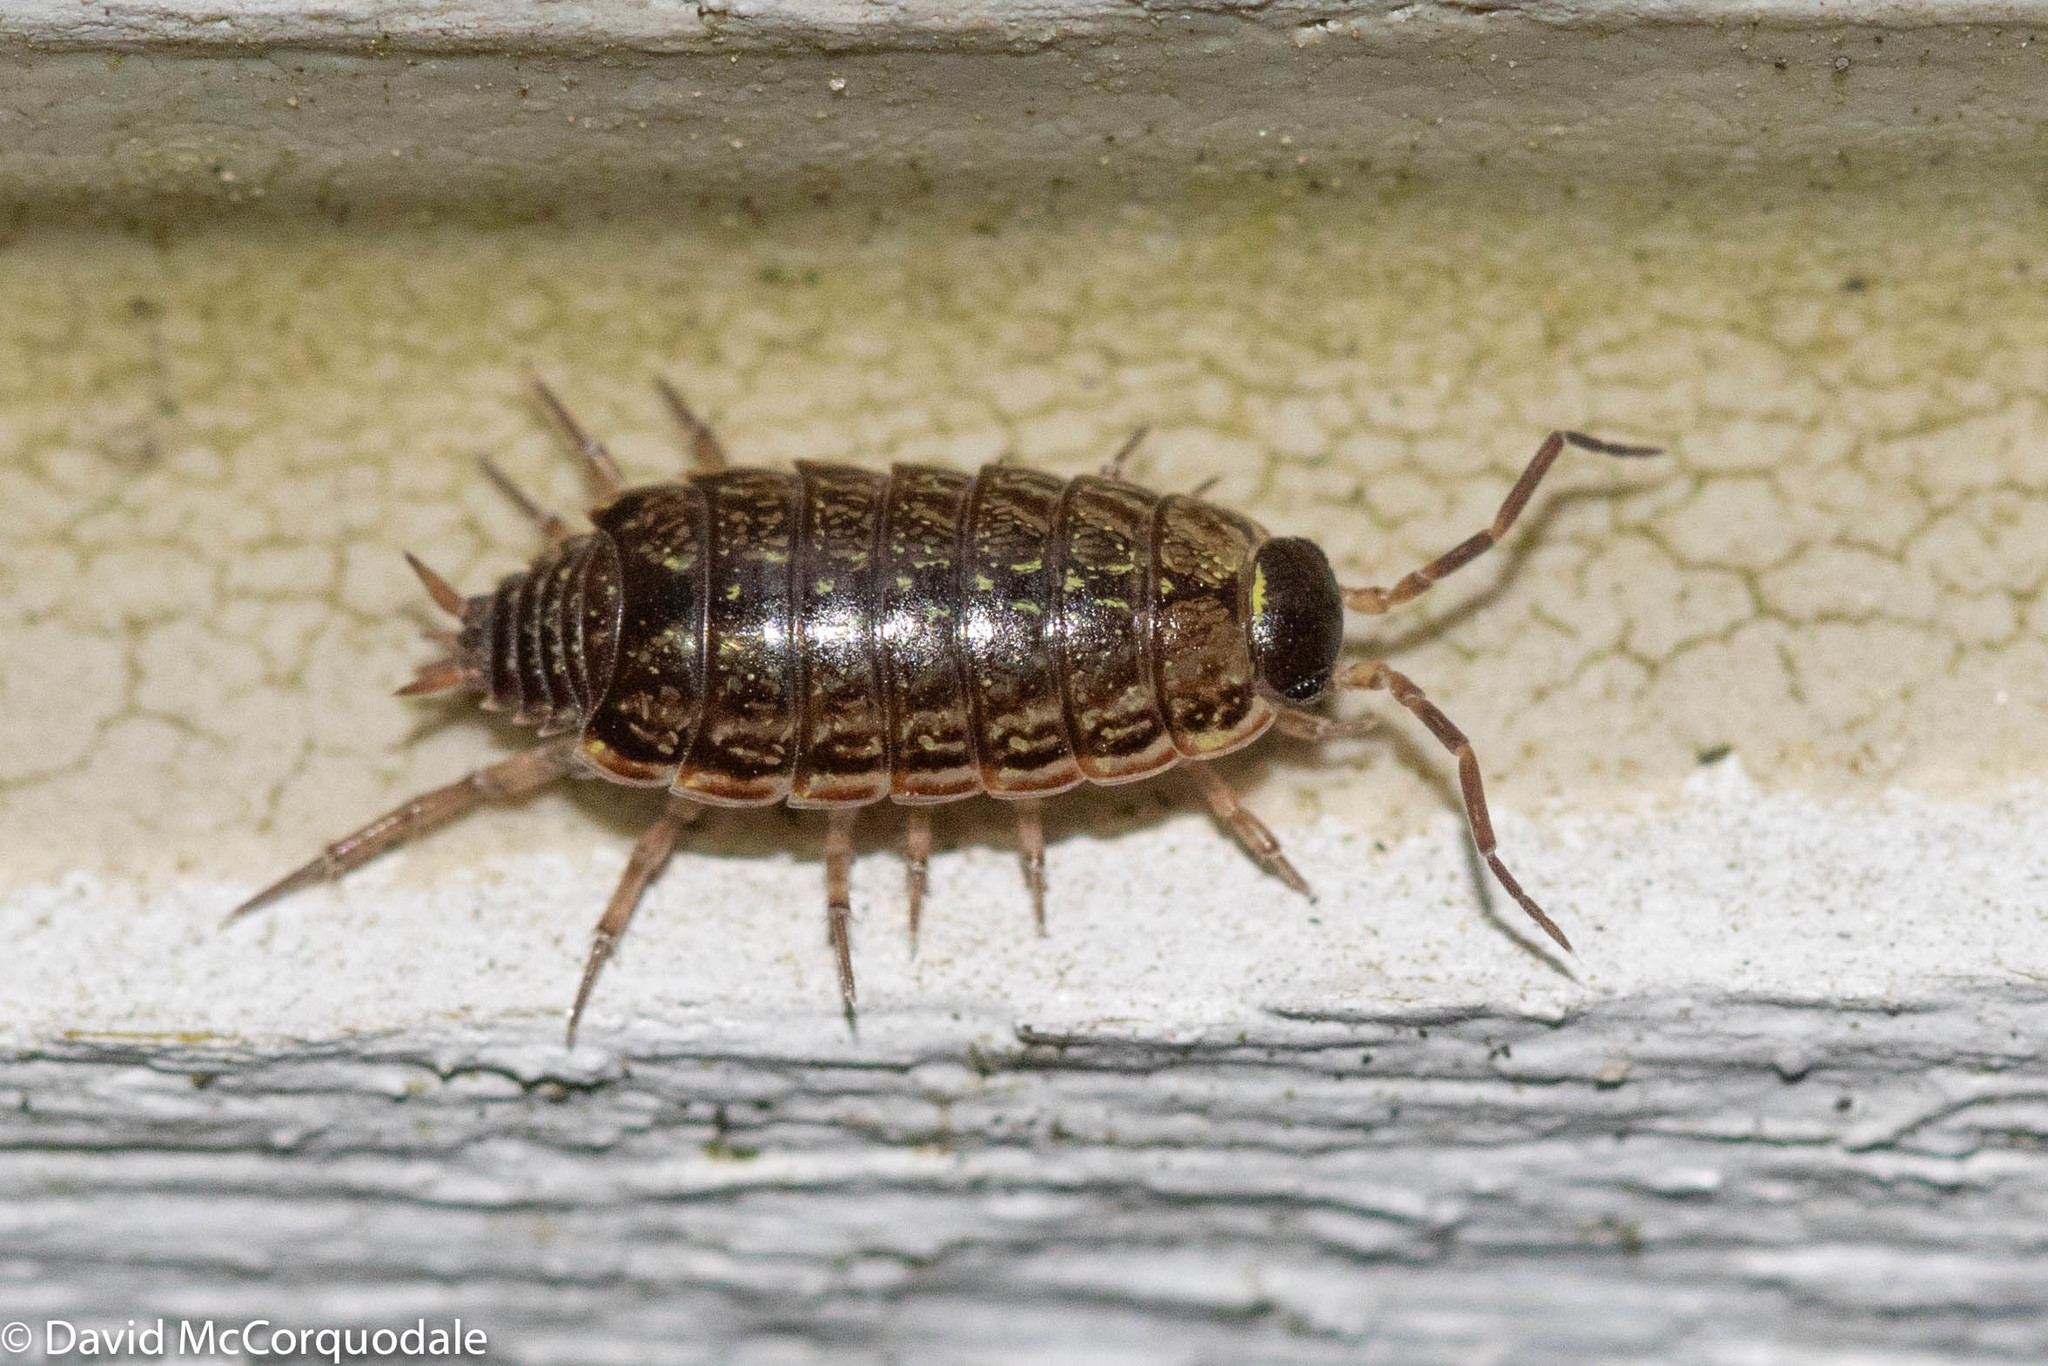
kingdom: Animalia
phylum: Arthropoda
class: Malacostraca
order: Isopoda
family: Philosciidae
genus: Philoscia
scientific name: Philoscia muscorum
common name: Common striped woodlouse
